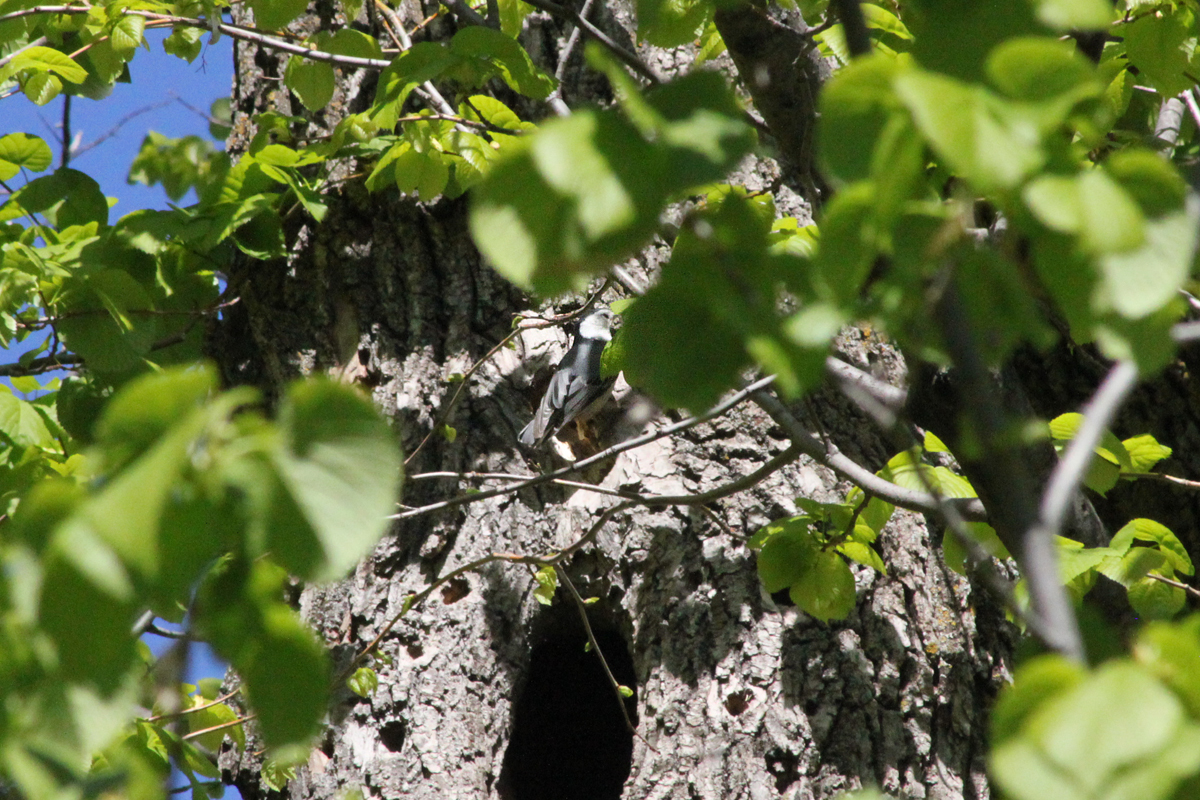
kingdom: Animalia
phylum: Chordata
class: Aves
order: Passeriformes
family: Sittidae
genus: Sitta
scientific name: Sitta carolinensis
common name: White-breasted nuthatch
